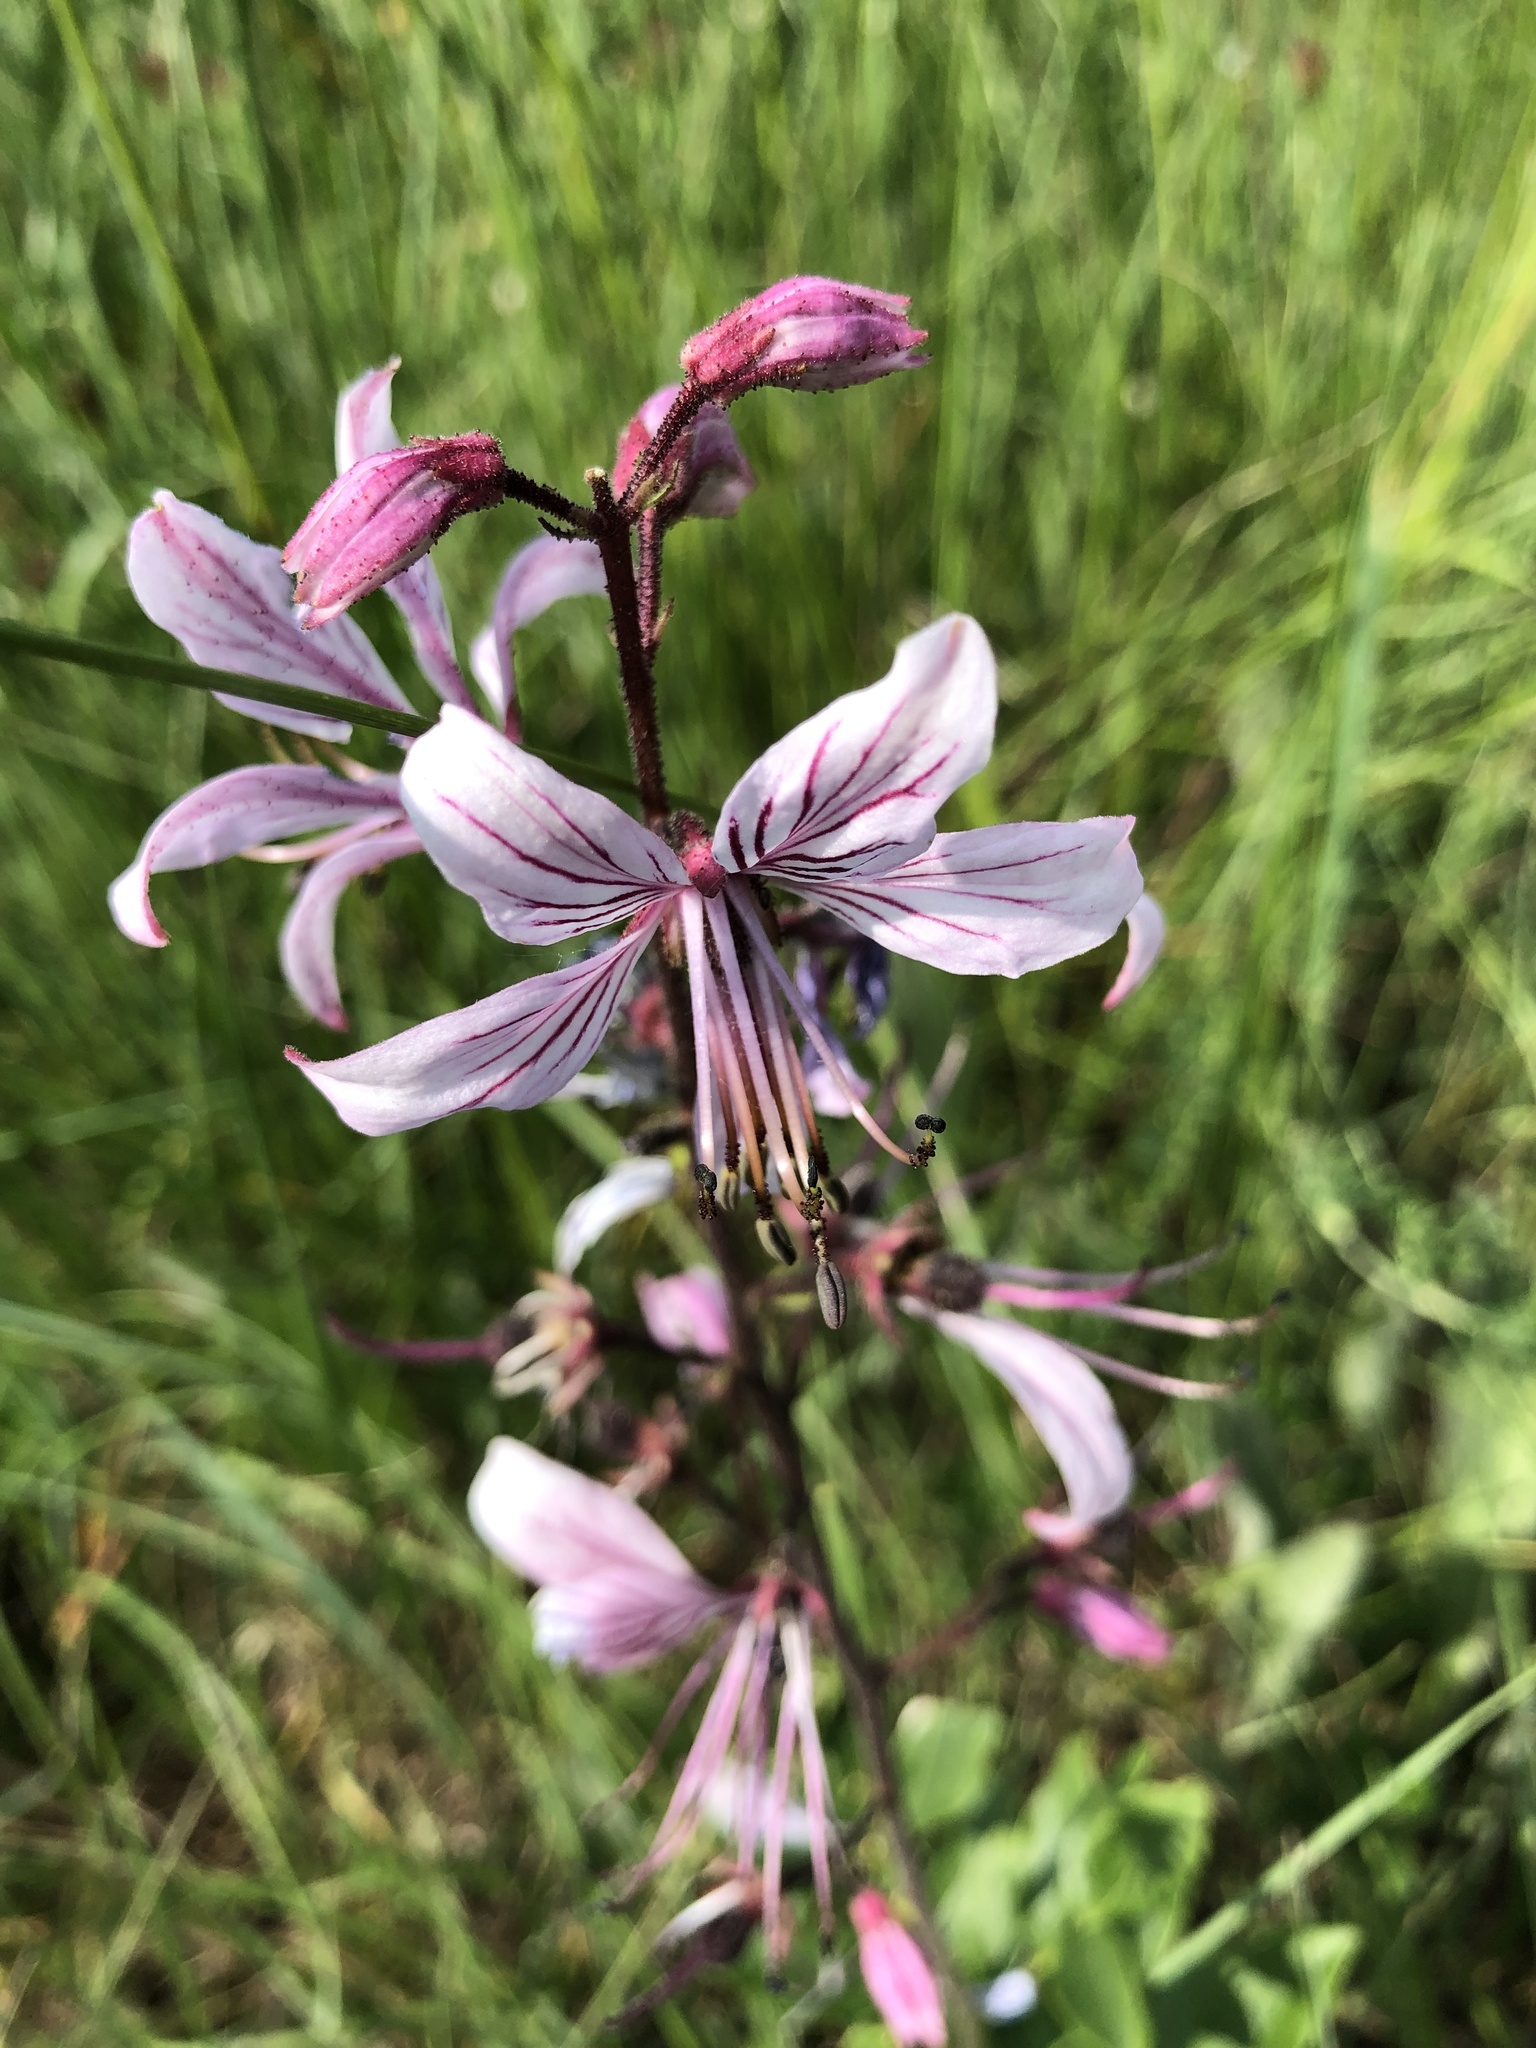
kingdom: Plantae
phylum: Tracheophyta
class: Magnoliopsida
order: Sapindales
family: Rutaceae
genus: Dictamnus
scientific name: Dictamnus albus
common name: Gasplant
